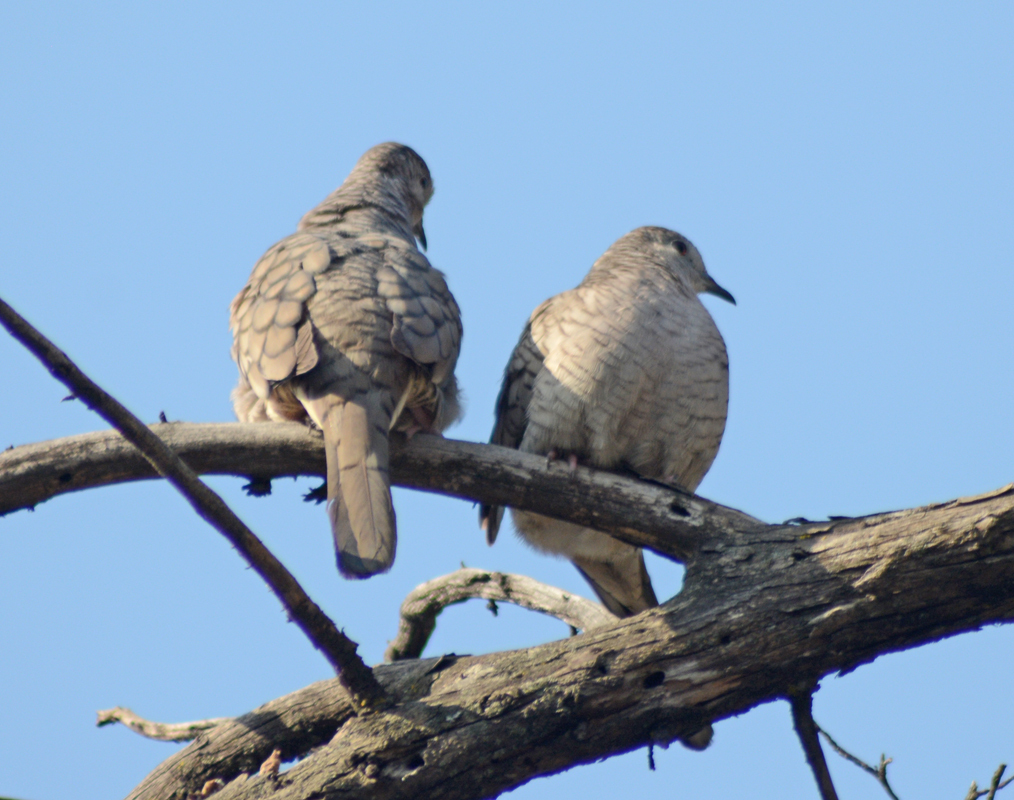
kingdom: Animalia
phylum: Chordata
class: Aves
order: Columbiformes
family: Columbidae
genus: Columbina
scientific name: Columbina inca
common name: Inca dove
